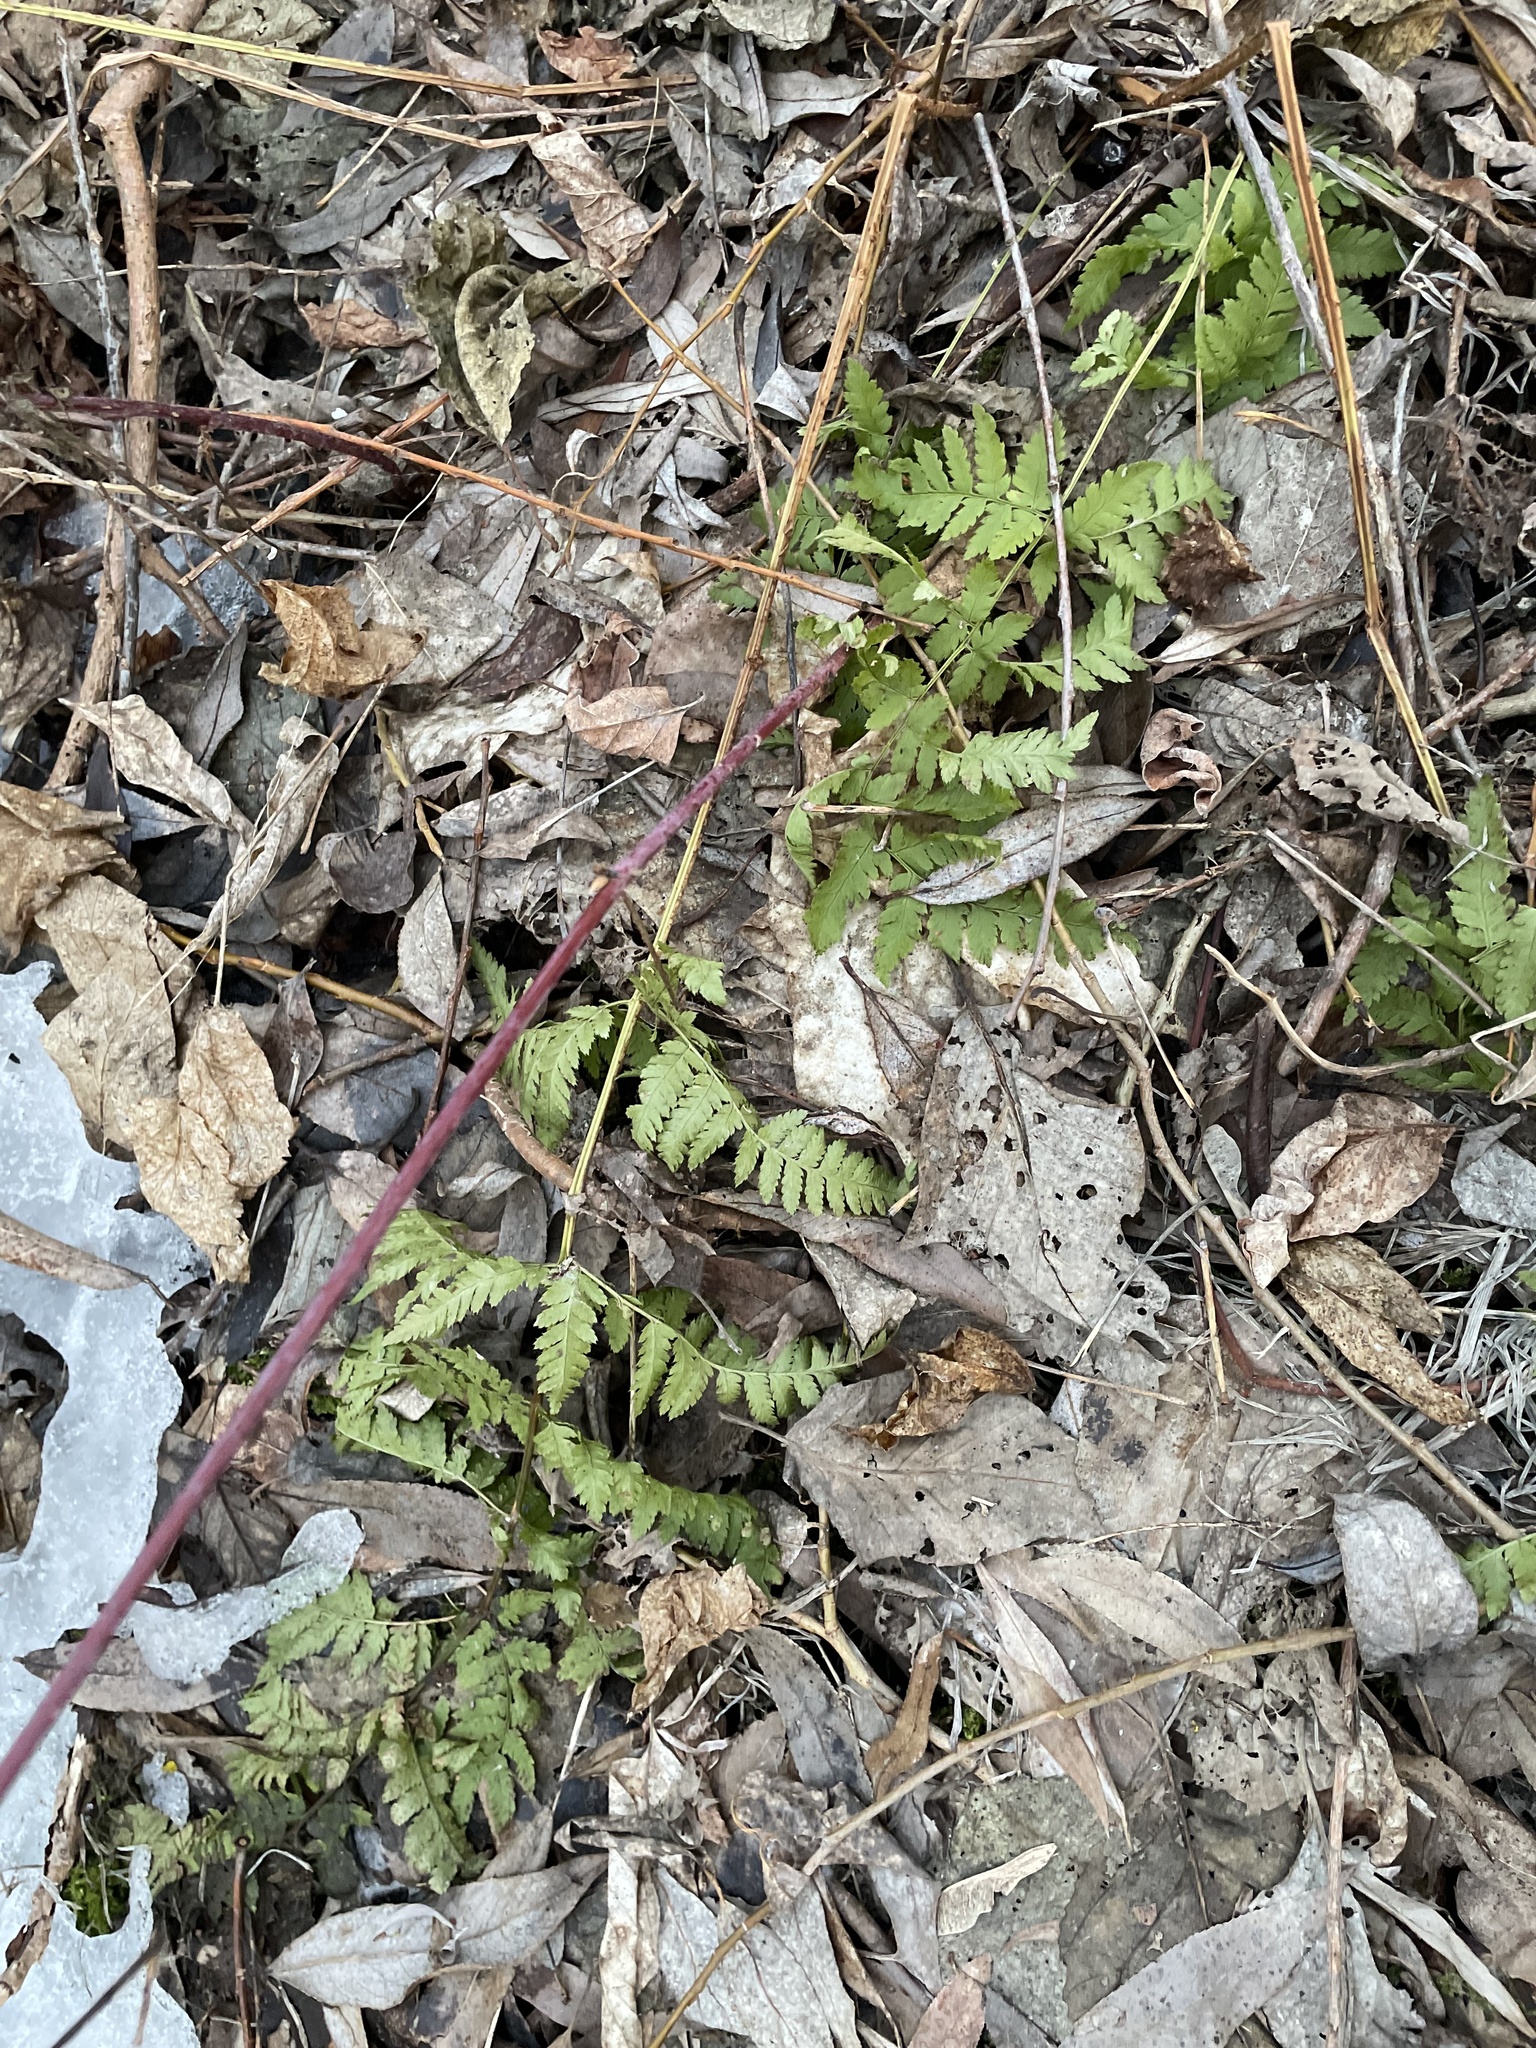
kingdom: Plantae
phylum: Tracheophyta
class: Polypodiopsida
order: Polypodiales
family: Dryopteridaceae
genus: Dryopteris
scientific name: Dryopteris carthusiana
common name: Narrow buckler-fern
